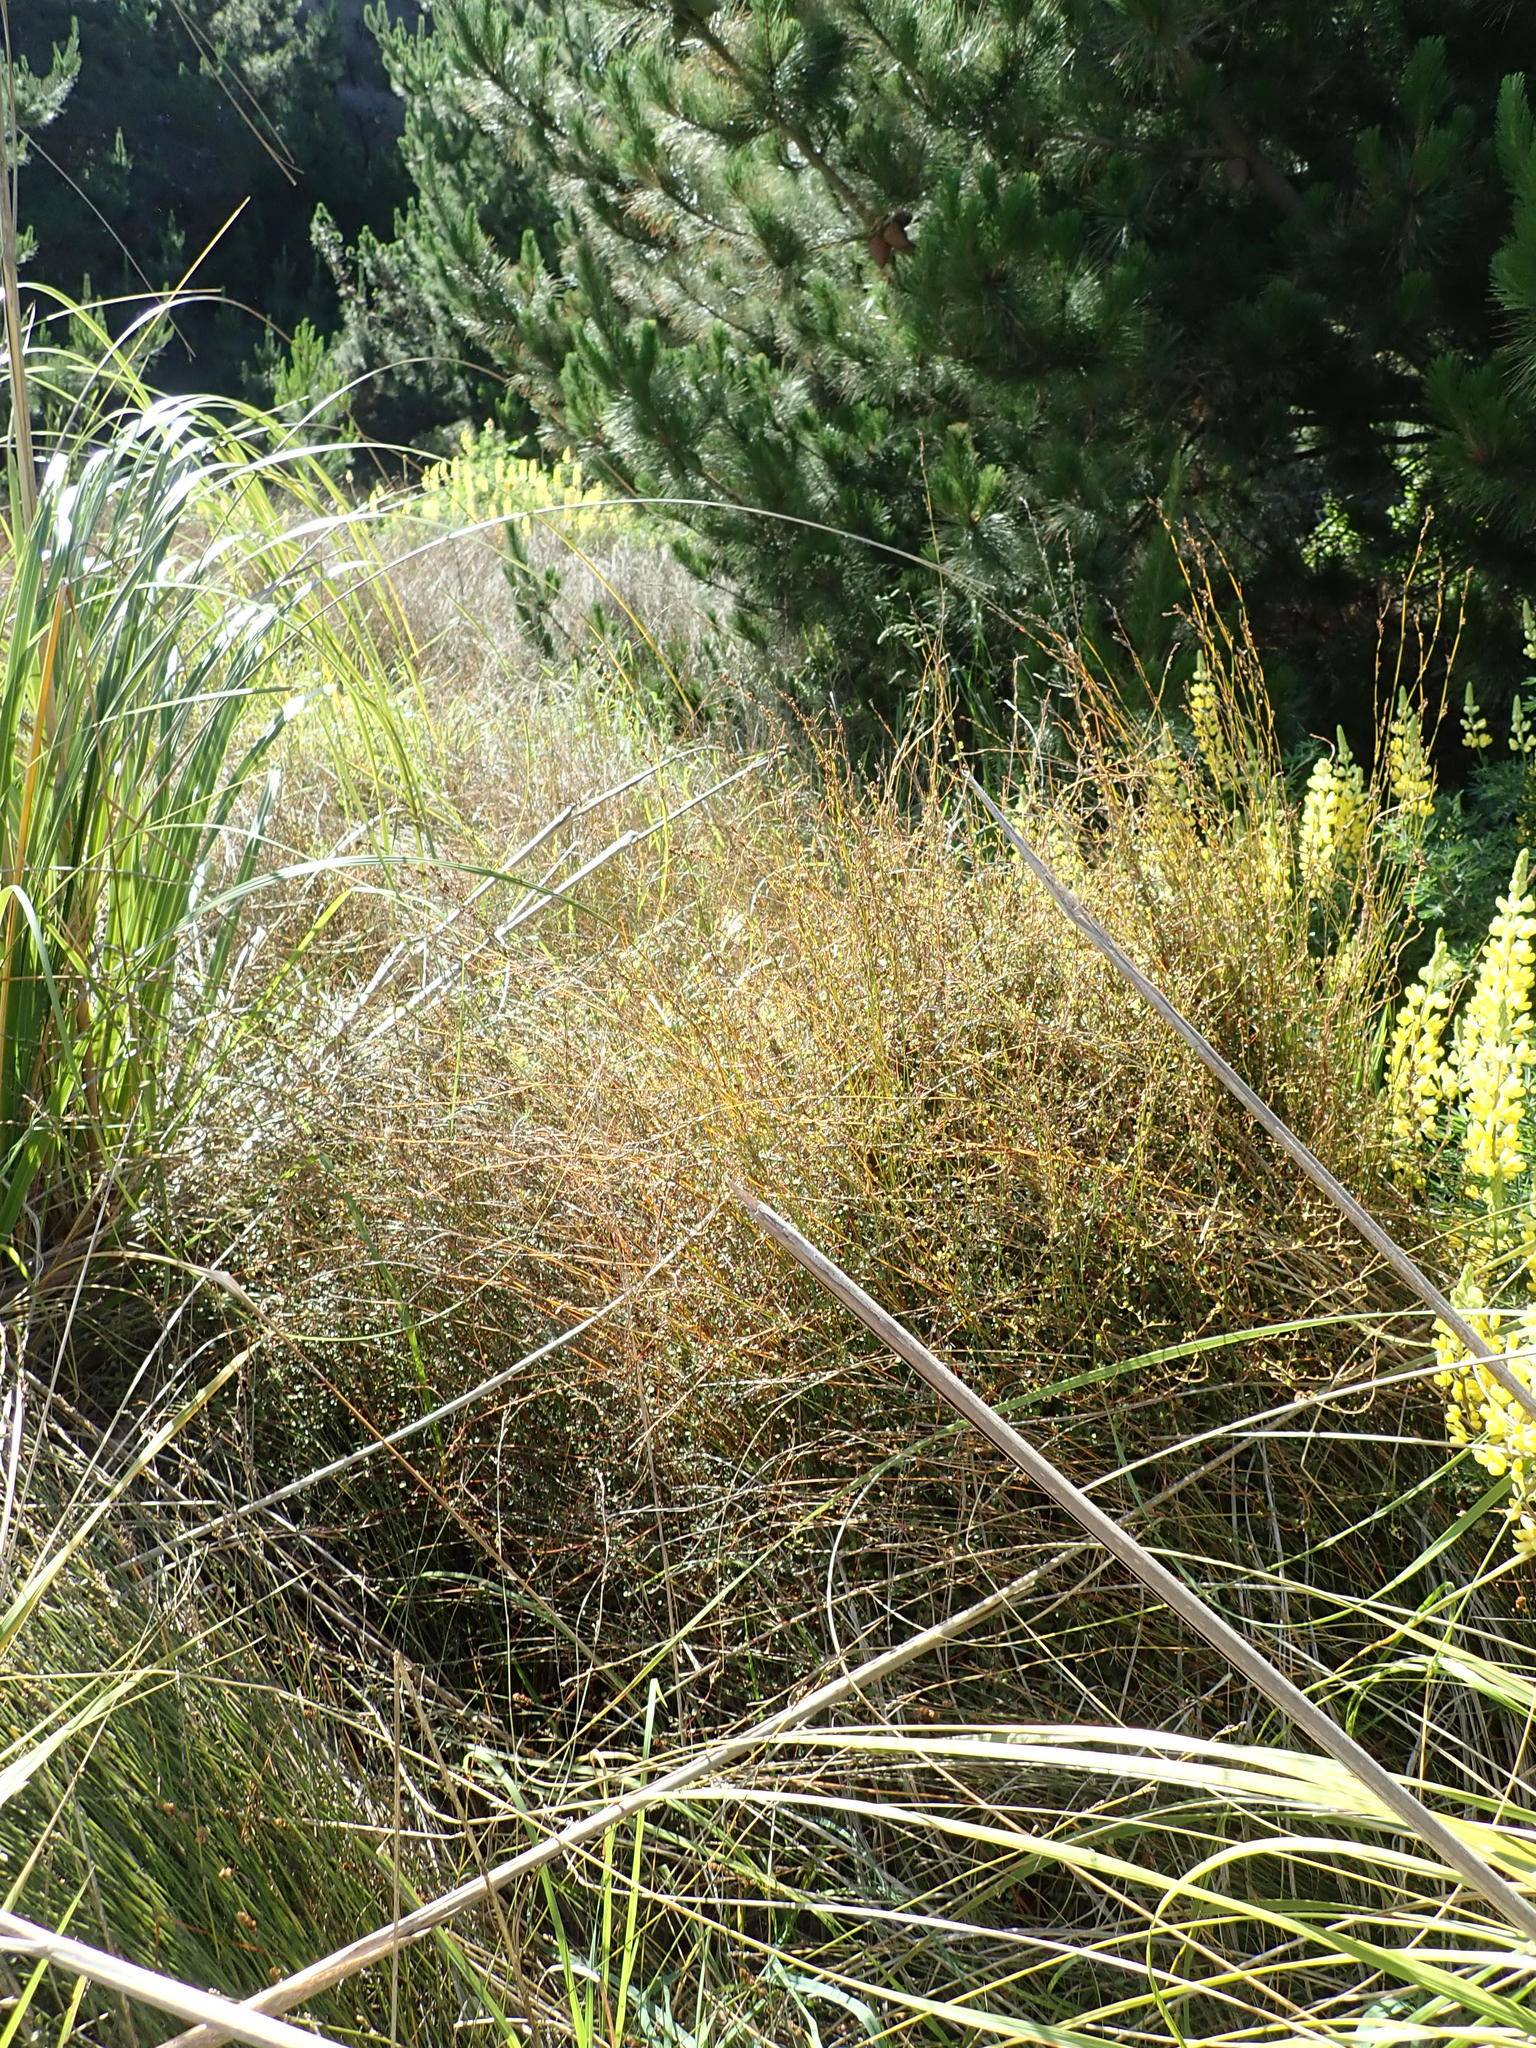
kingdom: Plantae
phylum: Tracheophyta
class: Magnoliopsida
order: Caryophyllales
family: Polygonaceae
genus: Muehlenbeckia
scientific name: Muehlenbeckia complexa
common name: Wireplant
